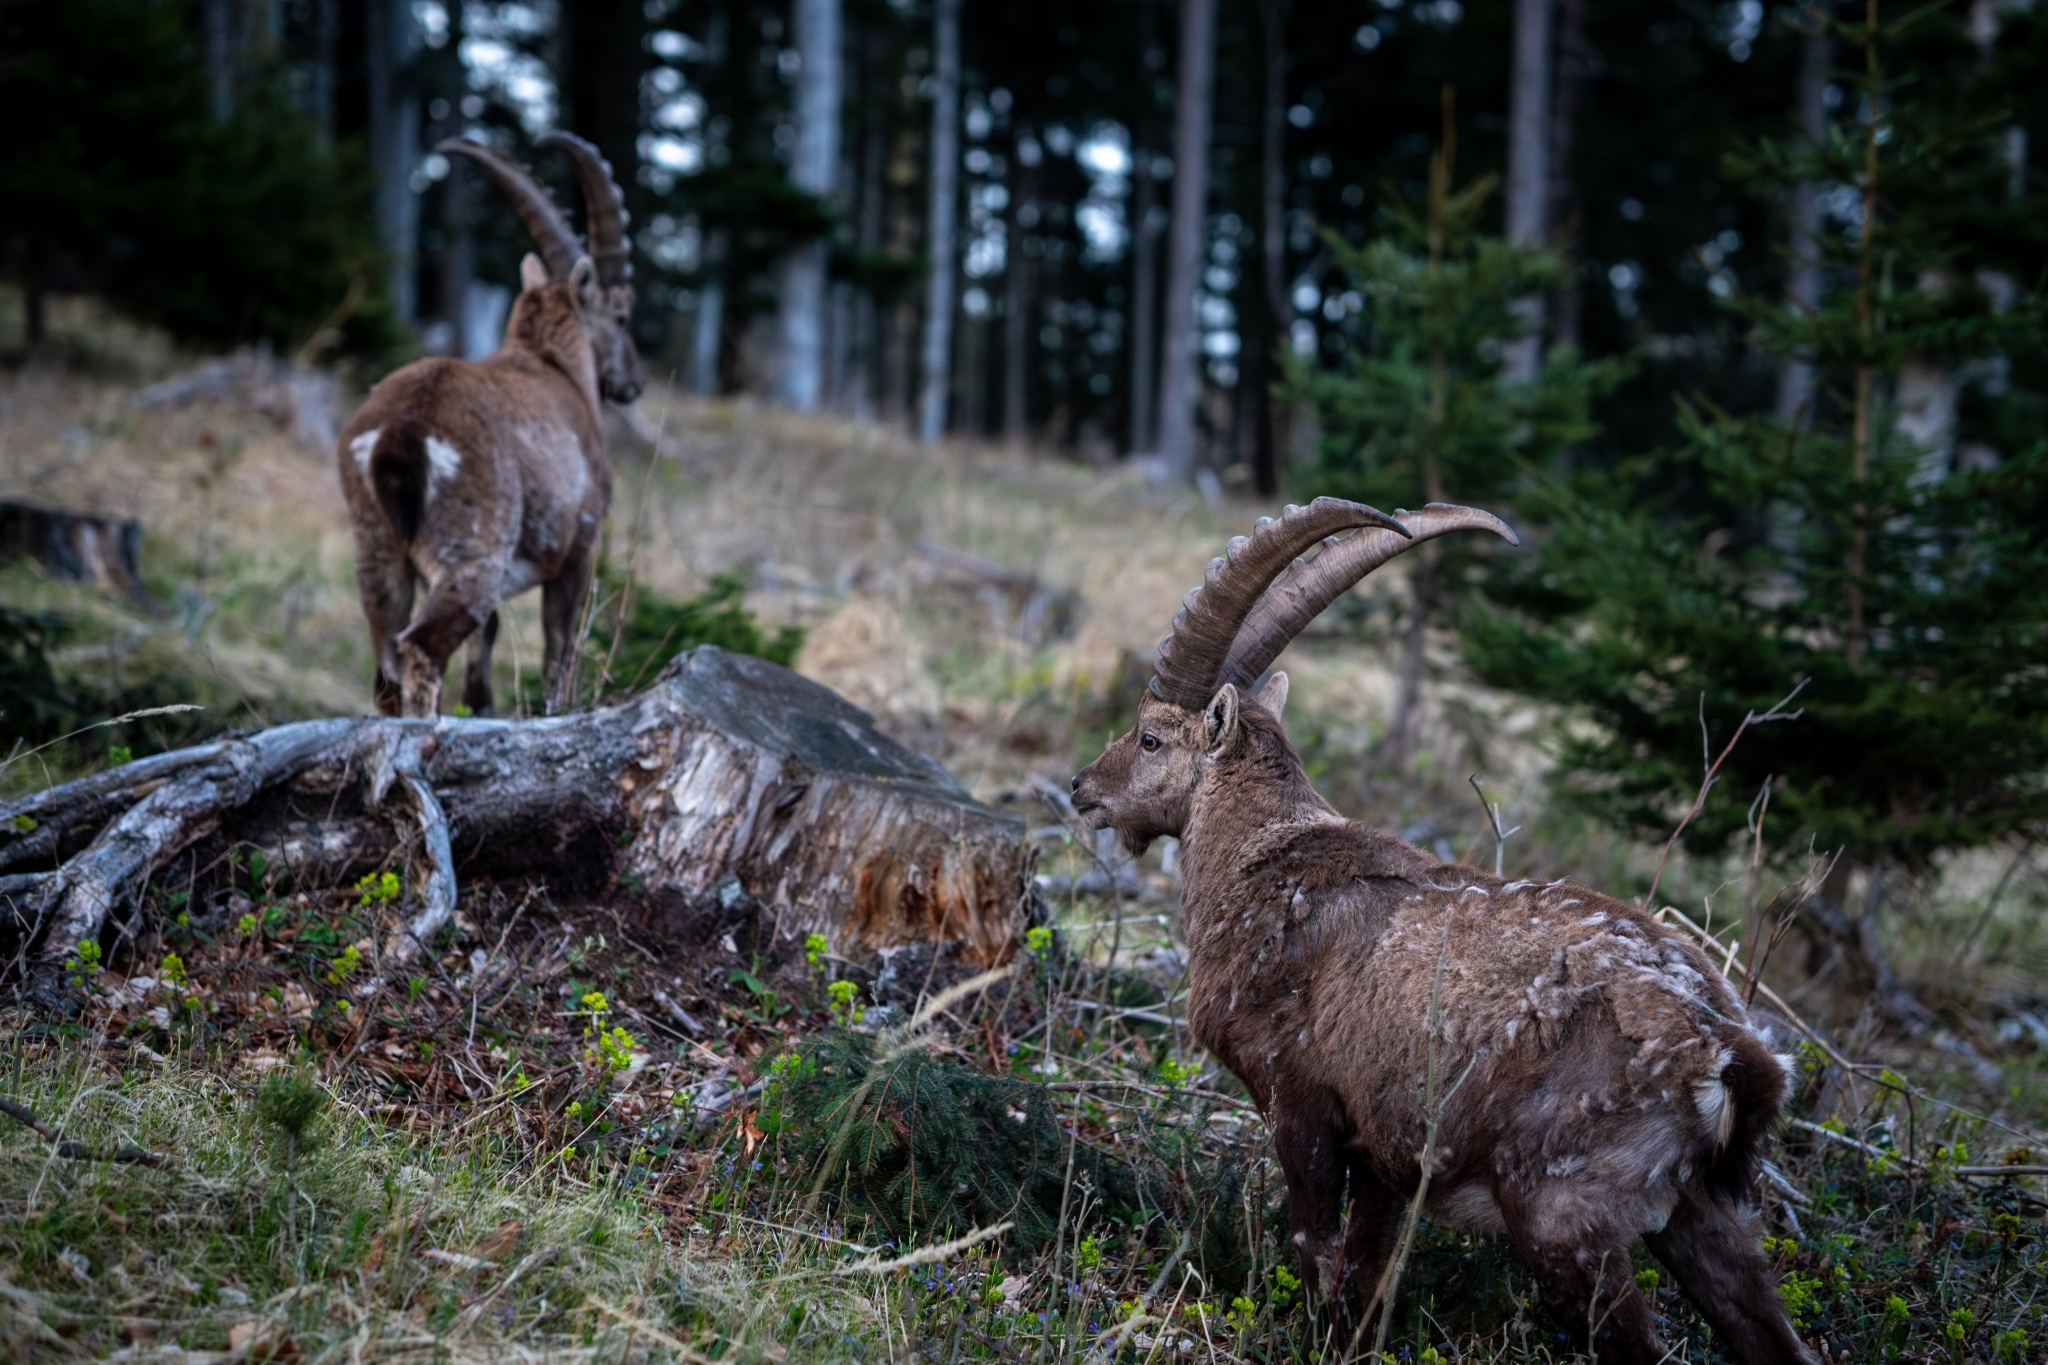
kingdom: Animalia
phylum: Chordata
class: Mammalia
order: Artiodactyla
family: Bovidae
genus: Capra
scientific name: Capra ibex
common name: Alpine ibex
